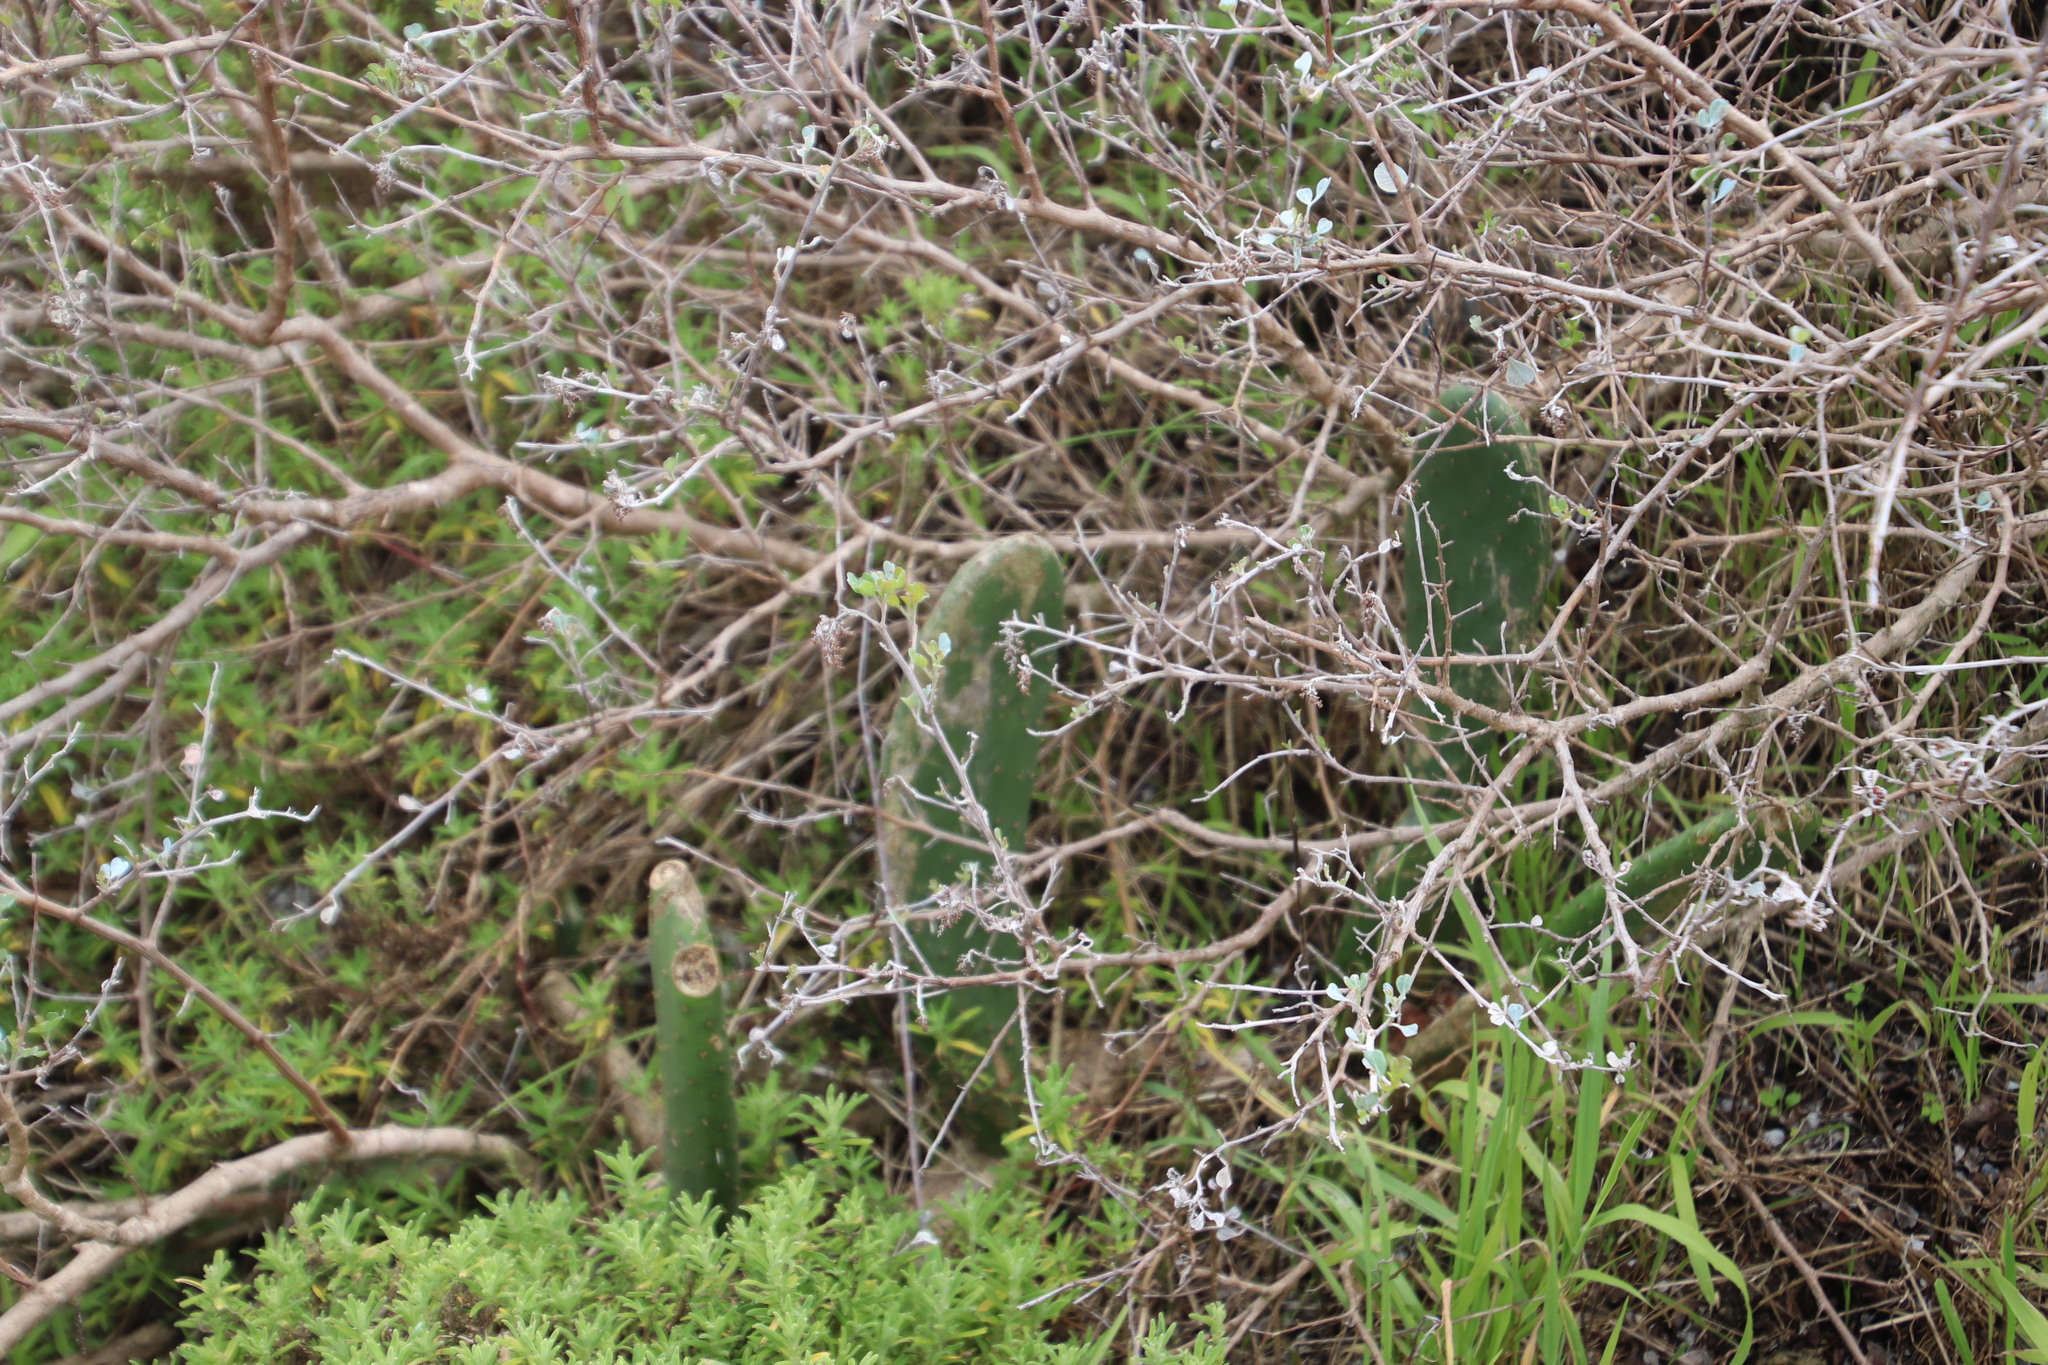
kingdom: Plantae
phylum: Tracheophyta
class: Magnoliopsida
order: Caryophyllales
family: Cactaceae
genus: Opuntia
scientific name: Opuntia ficus-indica
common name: Barbary fig
